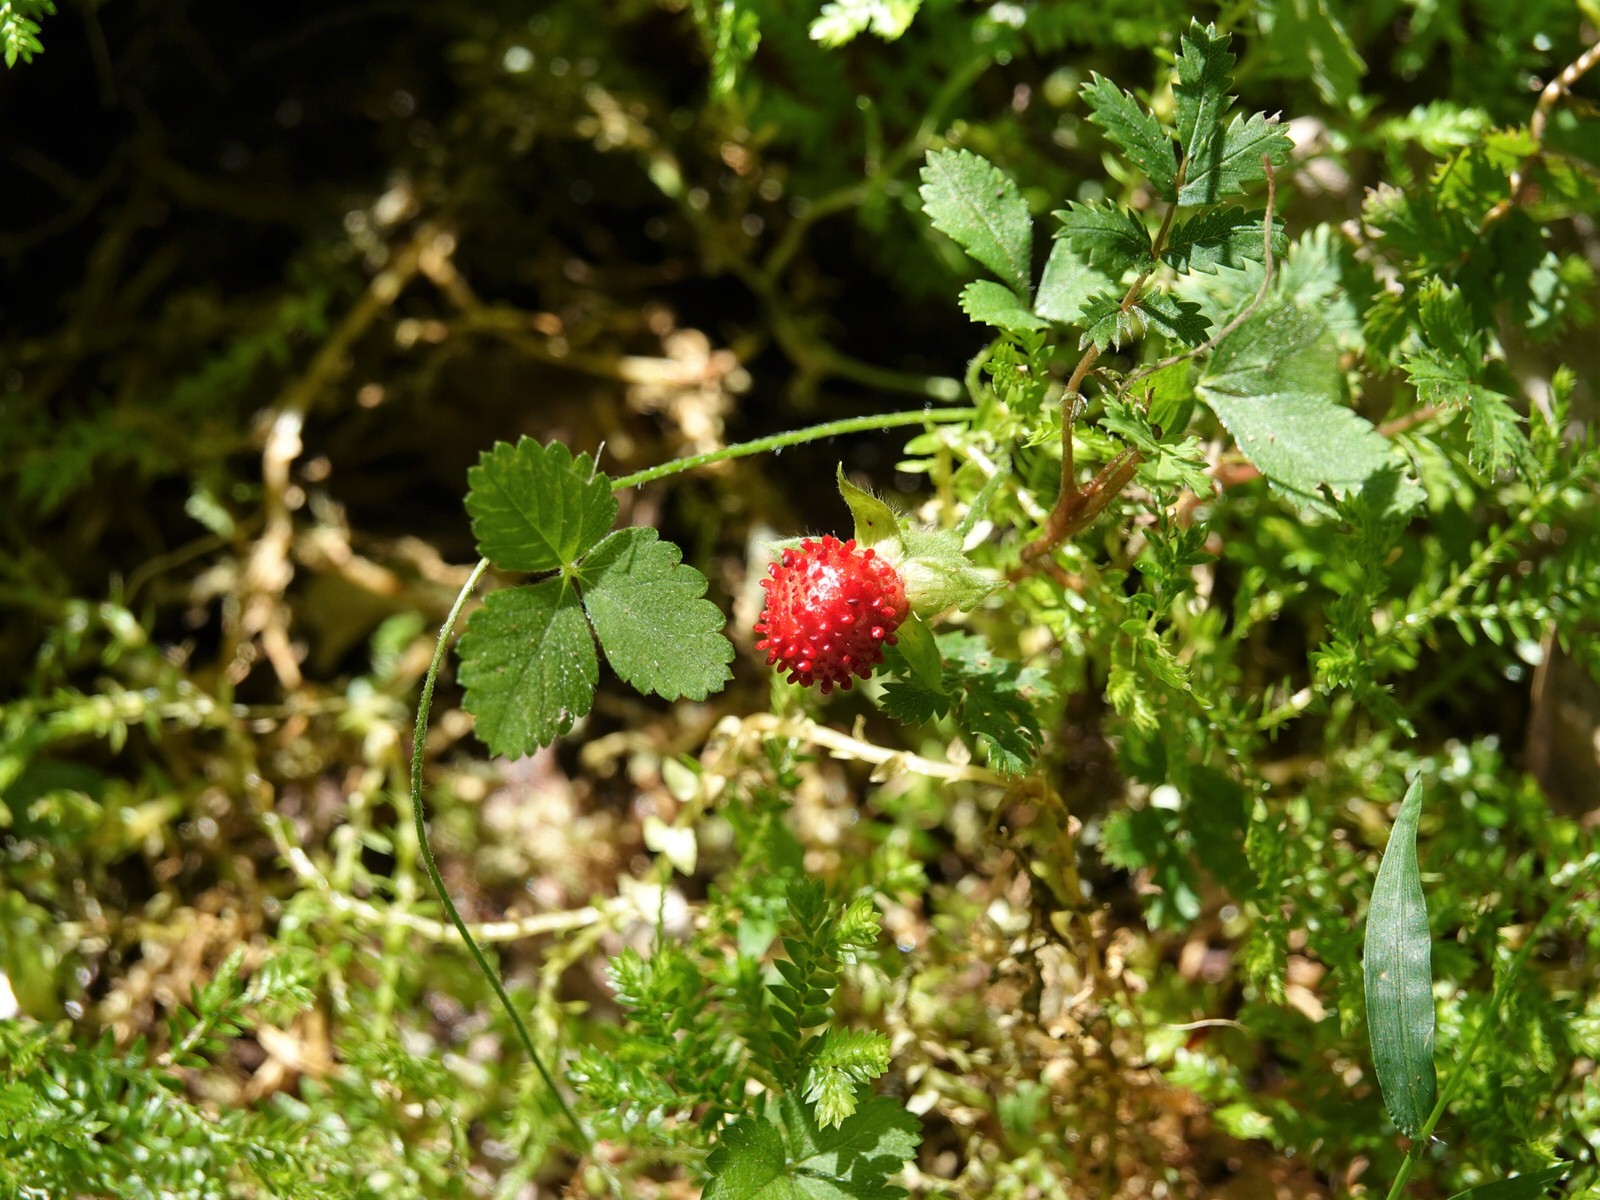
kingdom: Plantae
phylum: Tracheophyta
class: Magnoliopsida
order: Rosales
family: Rosaceae
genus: Potentilla
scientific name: Potentilla indica
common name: Yellow-flowered strawberry
